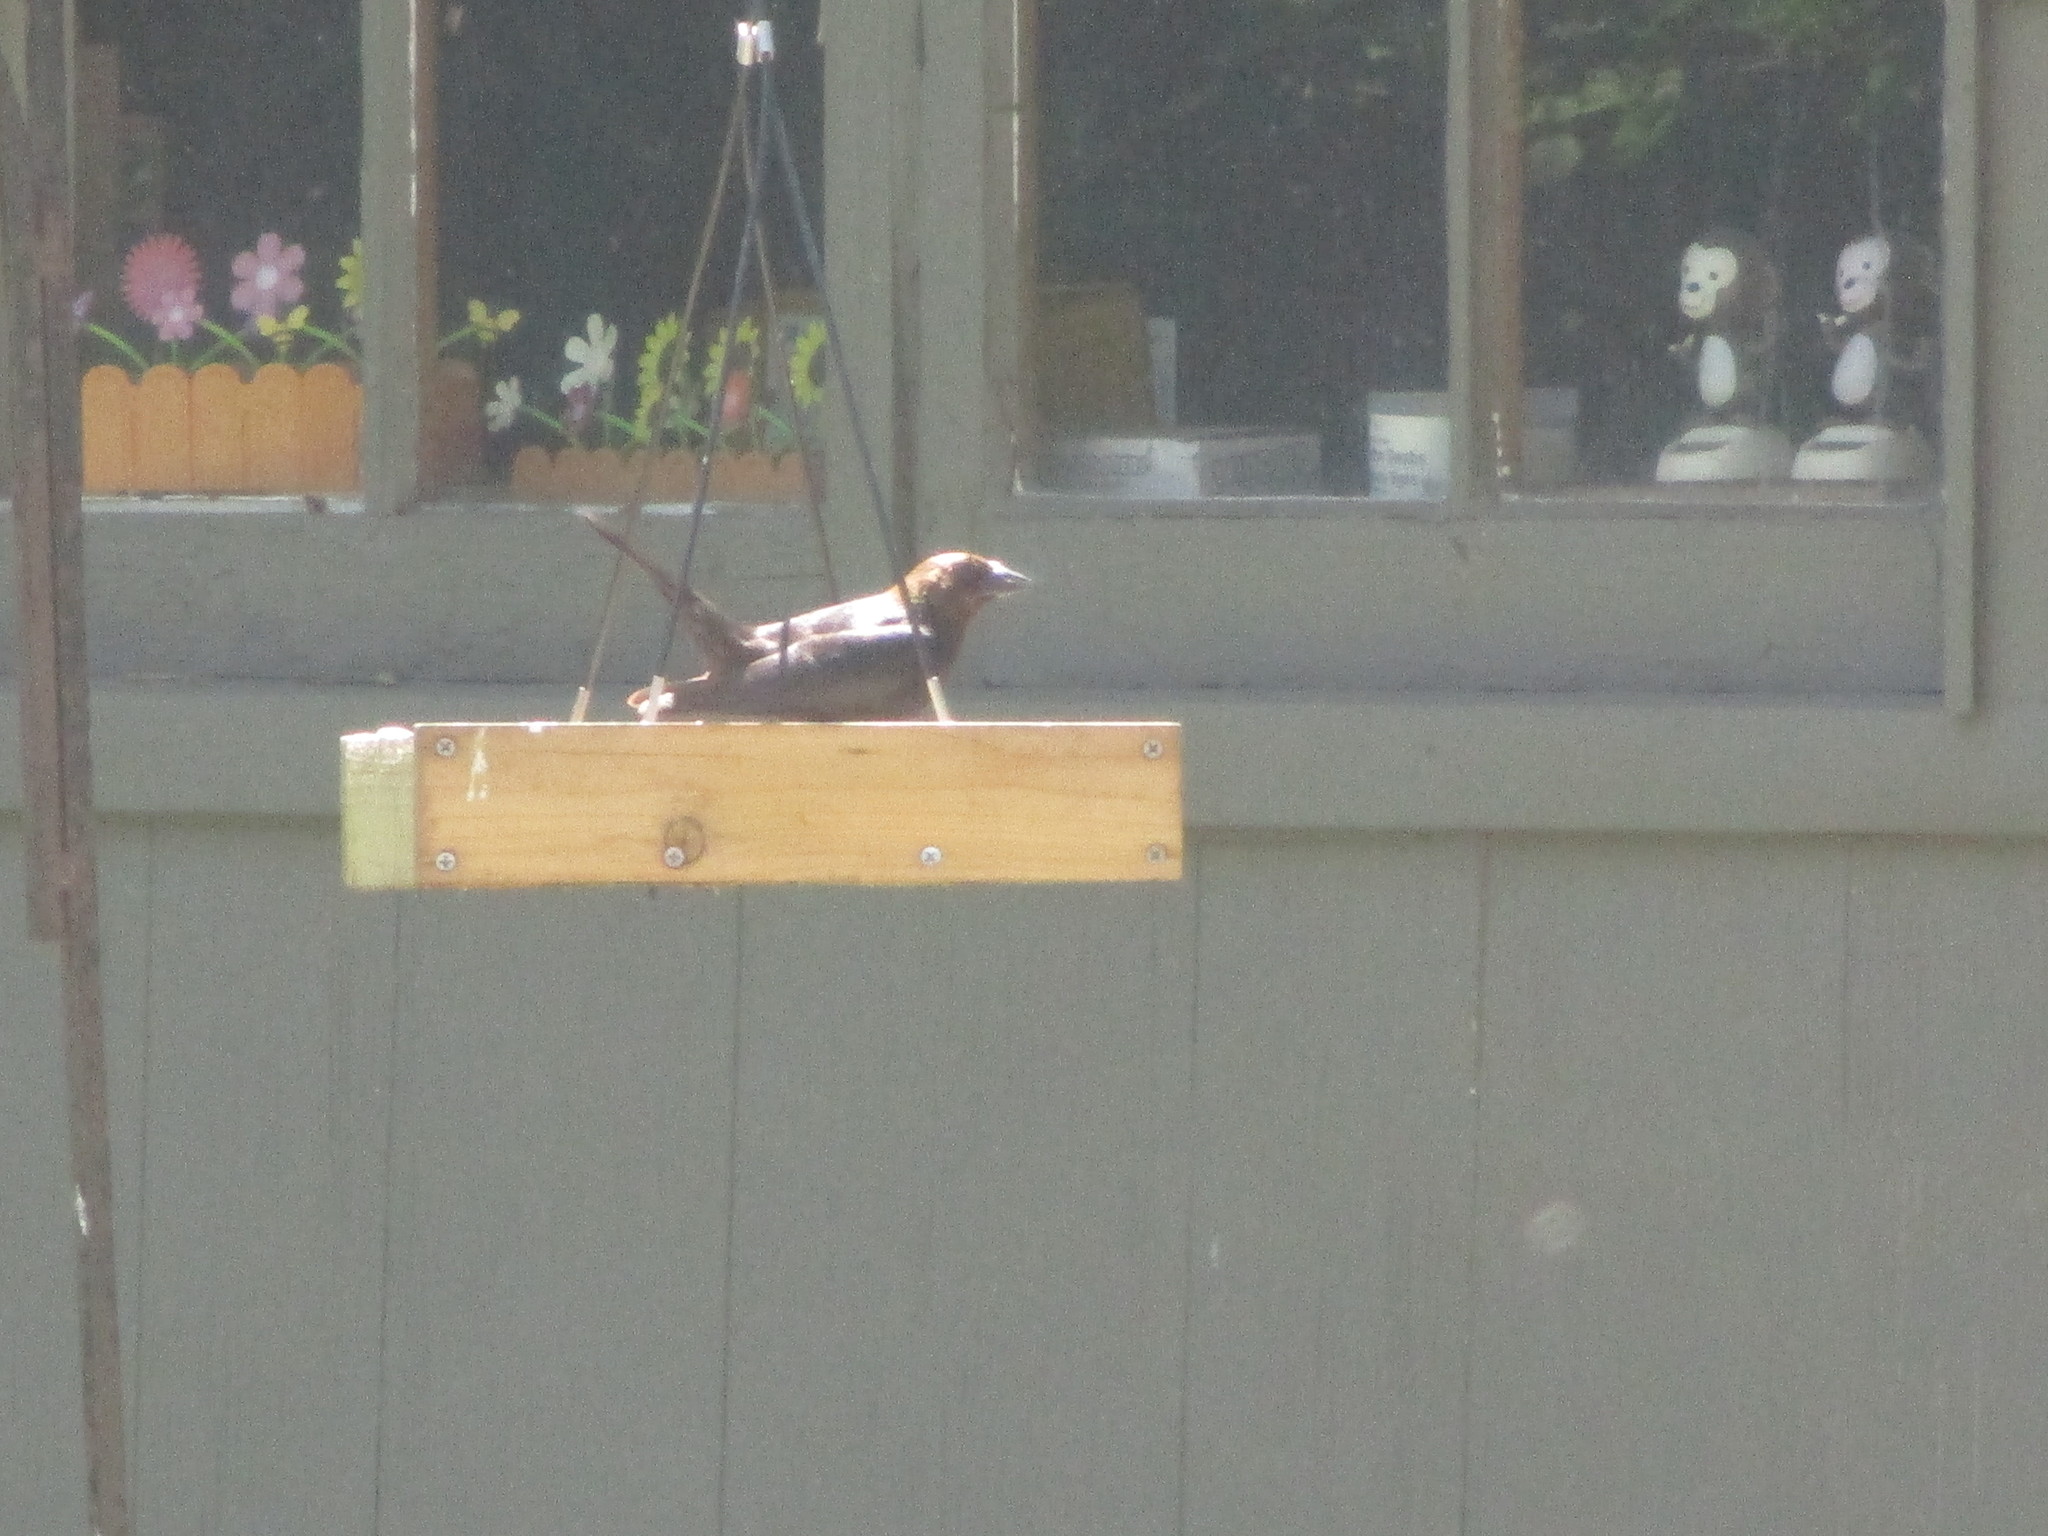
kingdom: Animalia
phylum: Chordata
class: Aves
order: Passeriformes
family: Icteridae
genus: Molothrus
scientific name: Molothrus ater
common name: Brown-headed cowbird
